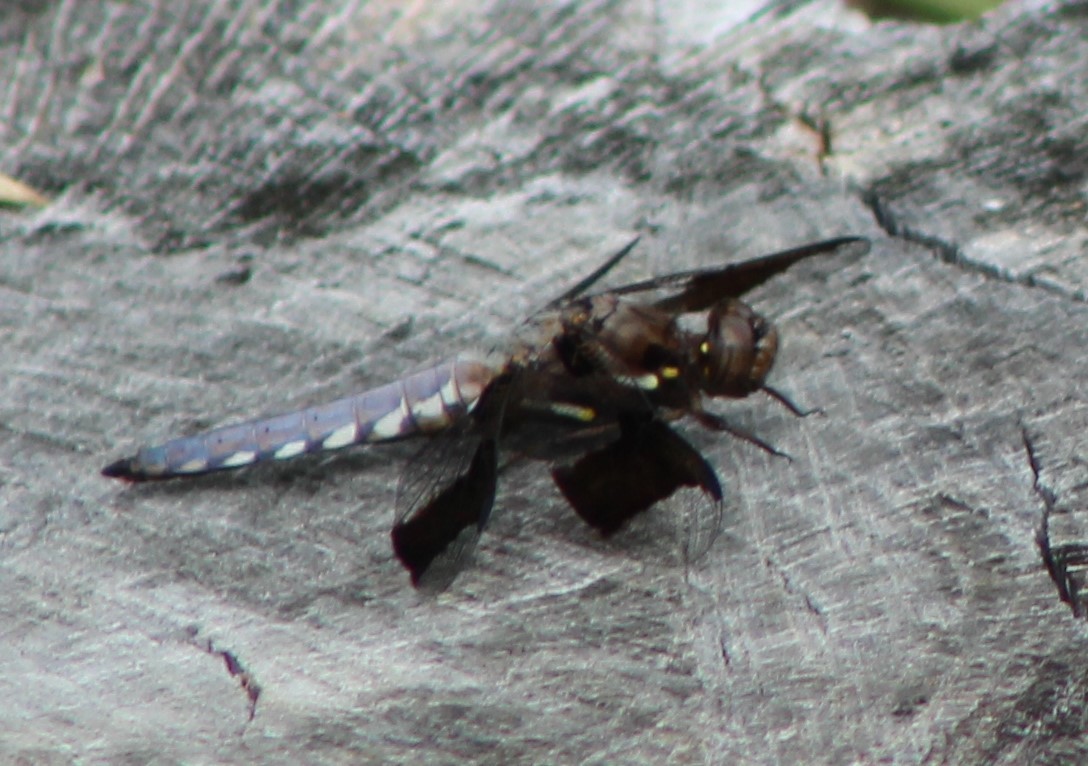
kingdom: Animalia
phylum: Arthropoda
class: Insecta
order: Odonata
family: Libellulidae
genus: Plathemis
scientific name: Plathemis lydia
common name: Common whitetail
